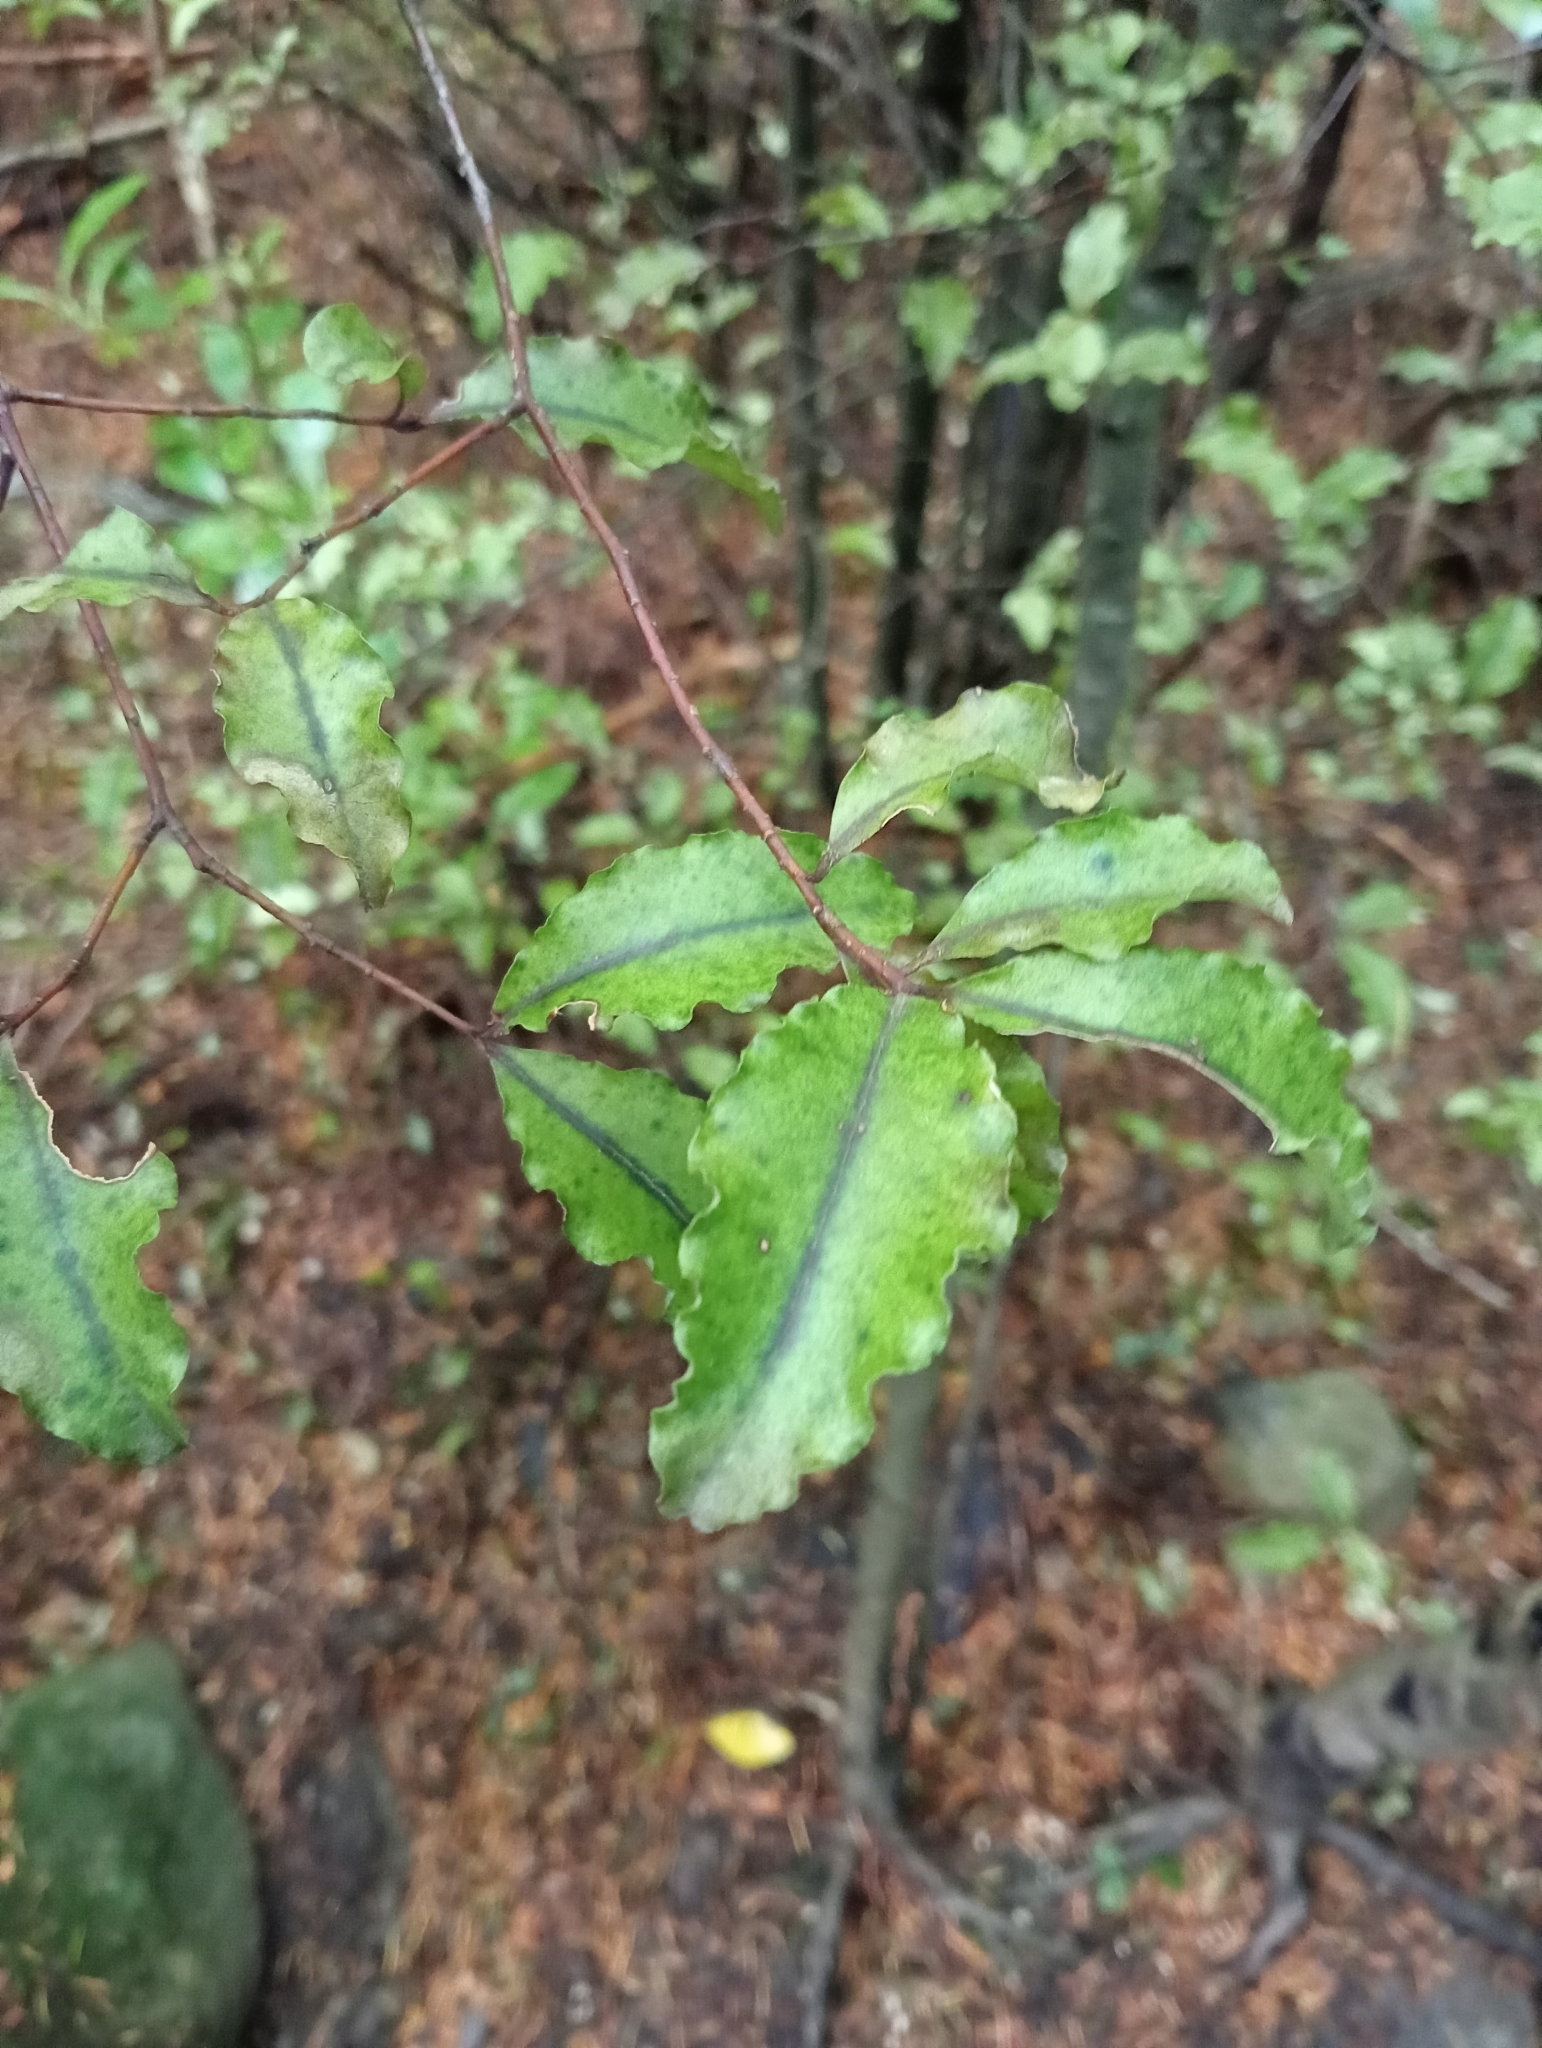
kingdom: Plantae
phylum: Tracheophyta
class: Magnoliopsida
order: Ericales
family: Primulaceae
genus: Myrsine
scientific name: Myrsine australis
